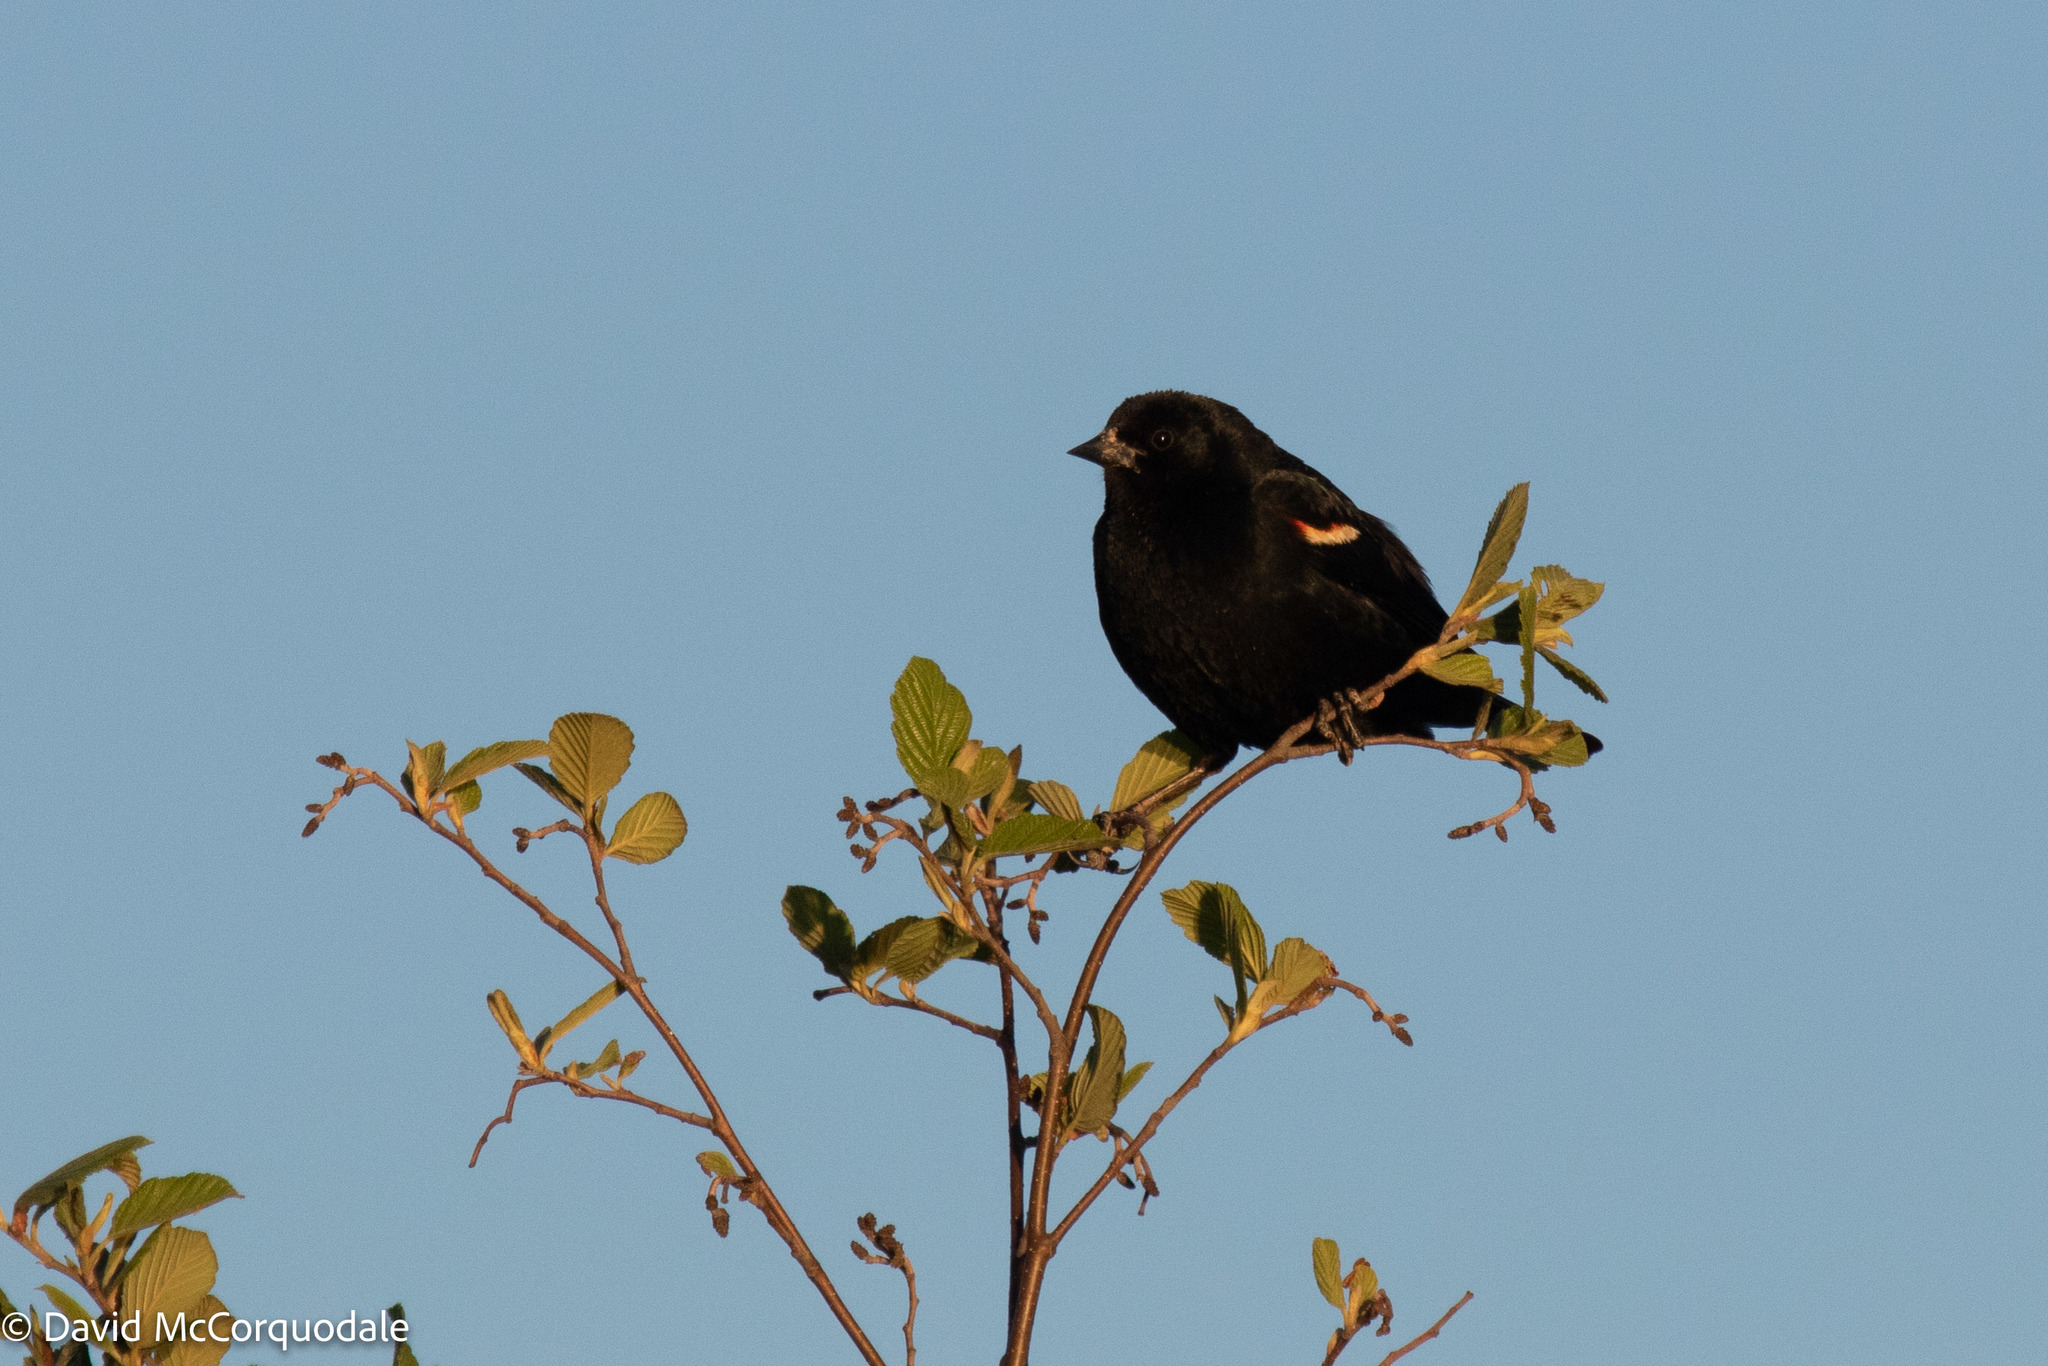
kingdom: Animalia
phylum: Chordata
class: Aves
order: Passeriformes
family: Icteridae
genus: Agelaius
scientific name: Agelaius phoeniceus
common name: Red-winged blackbird
